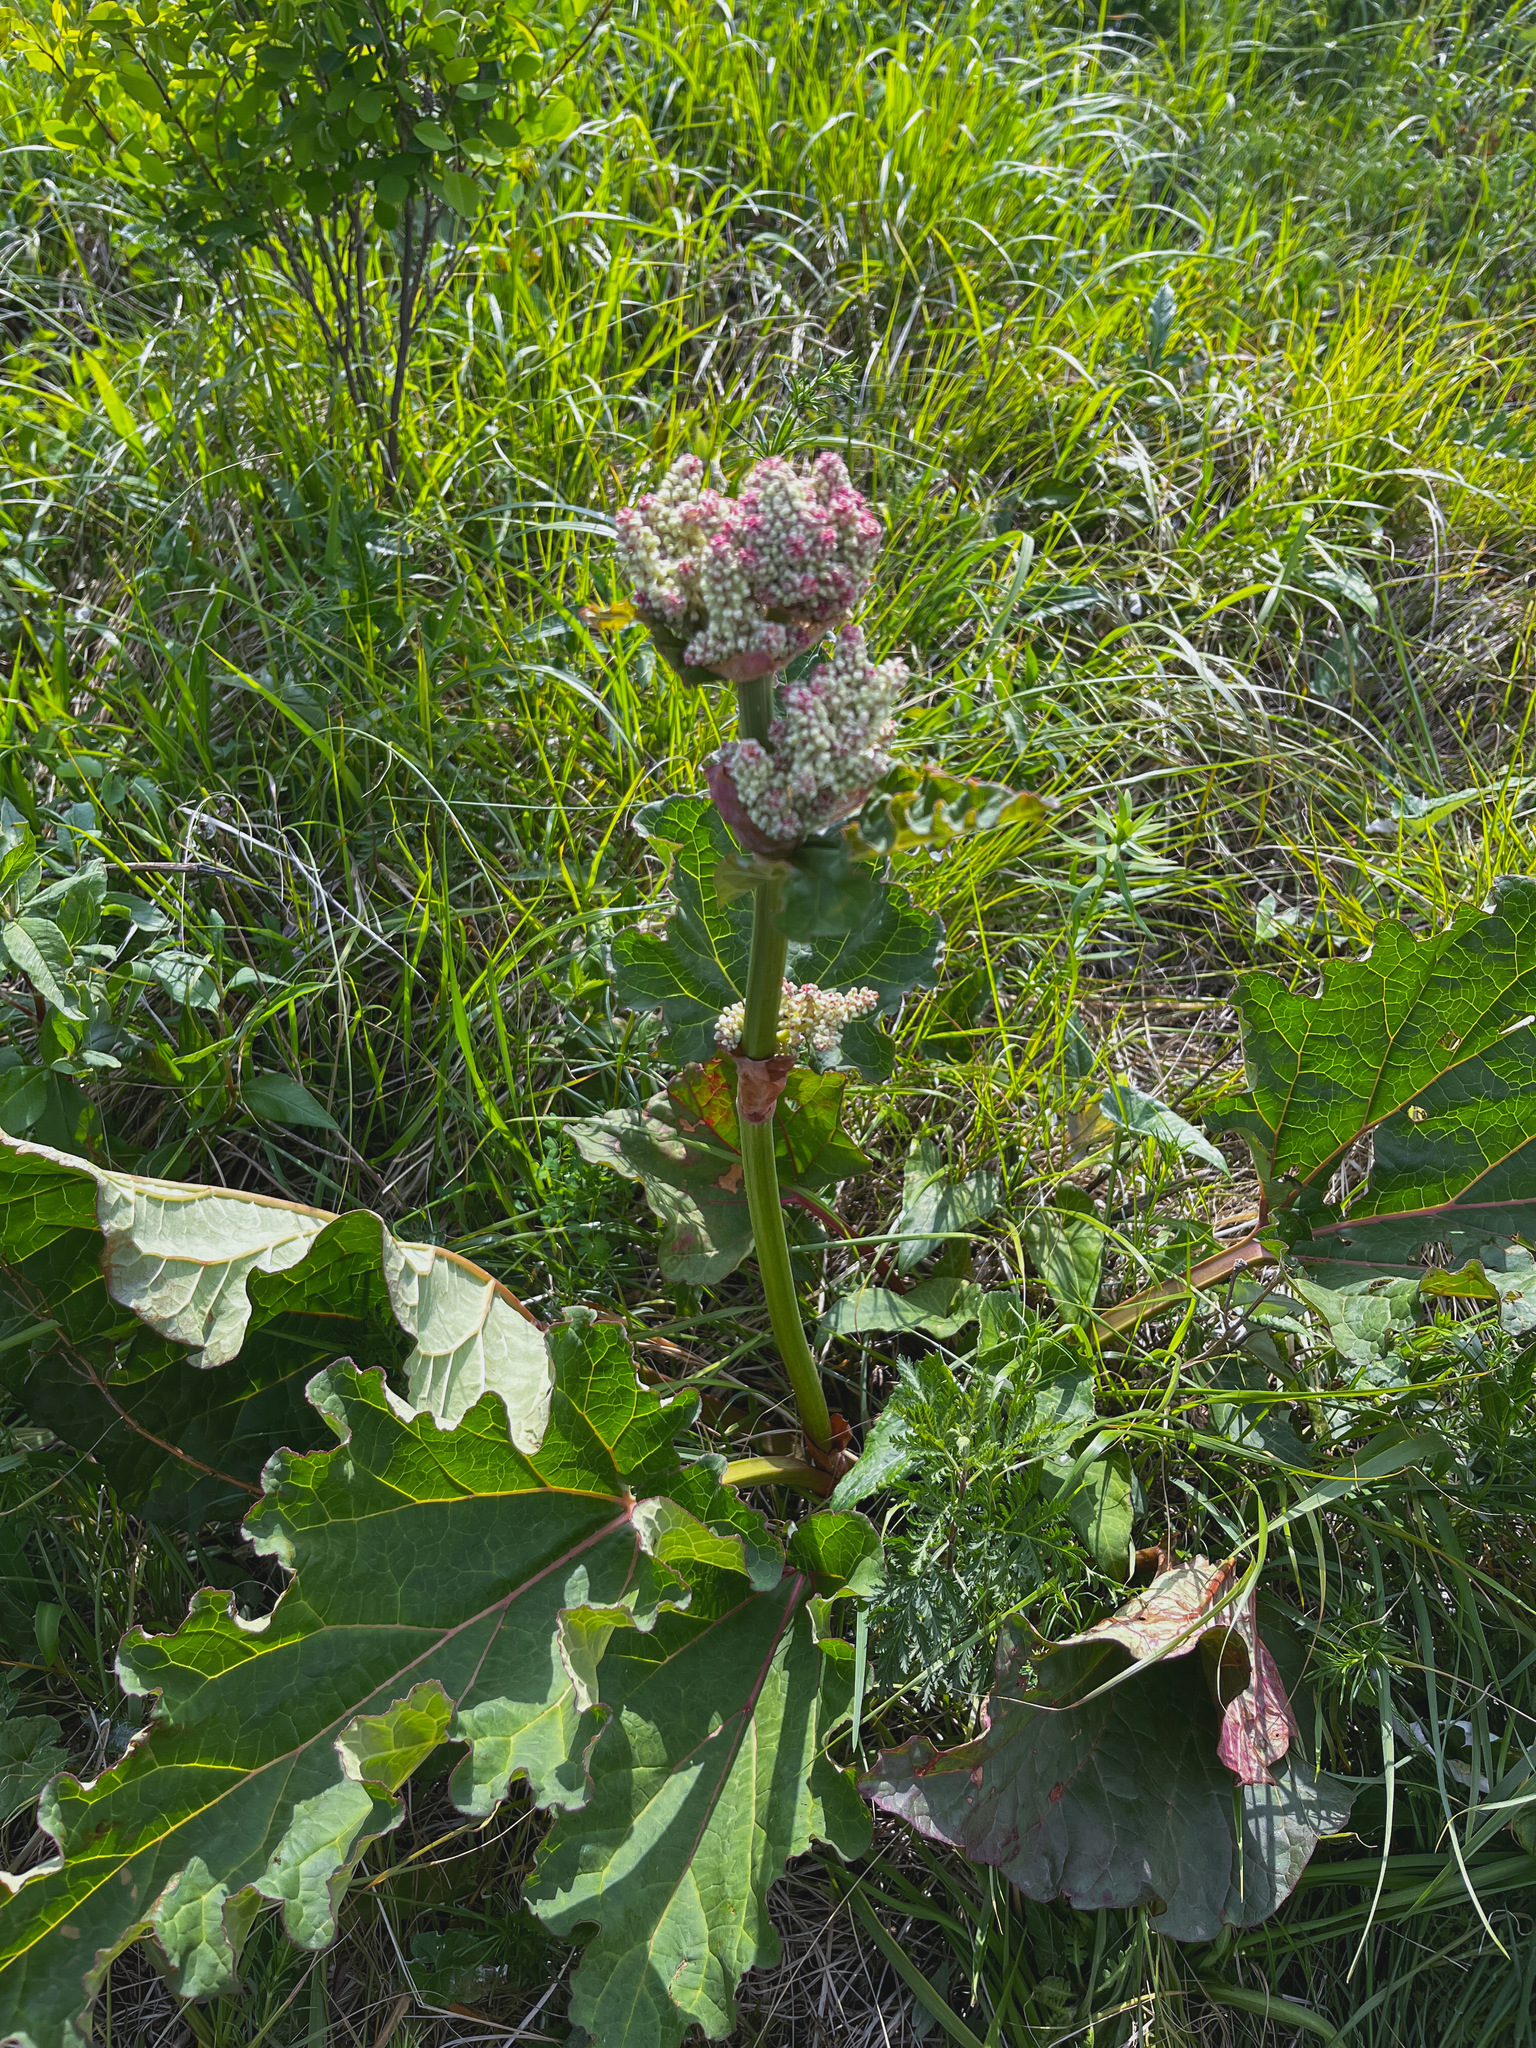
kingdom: Plantae
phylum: Tracheophyta
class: Magnoliopsida
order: Caryophyllales
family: Polygonaceae
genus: Rheum
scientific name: Rheum rhabarbarum
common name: Garden rhubarb
